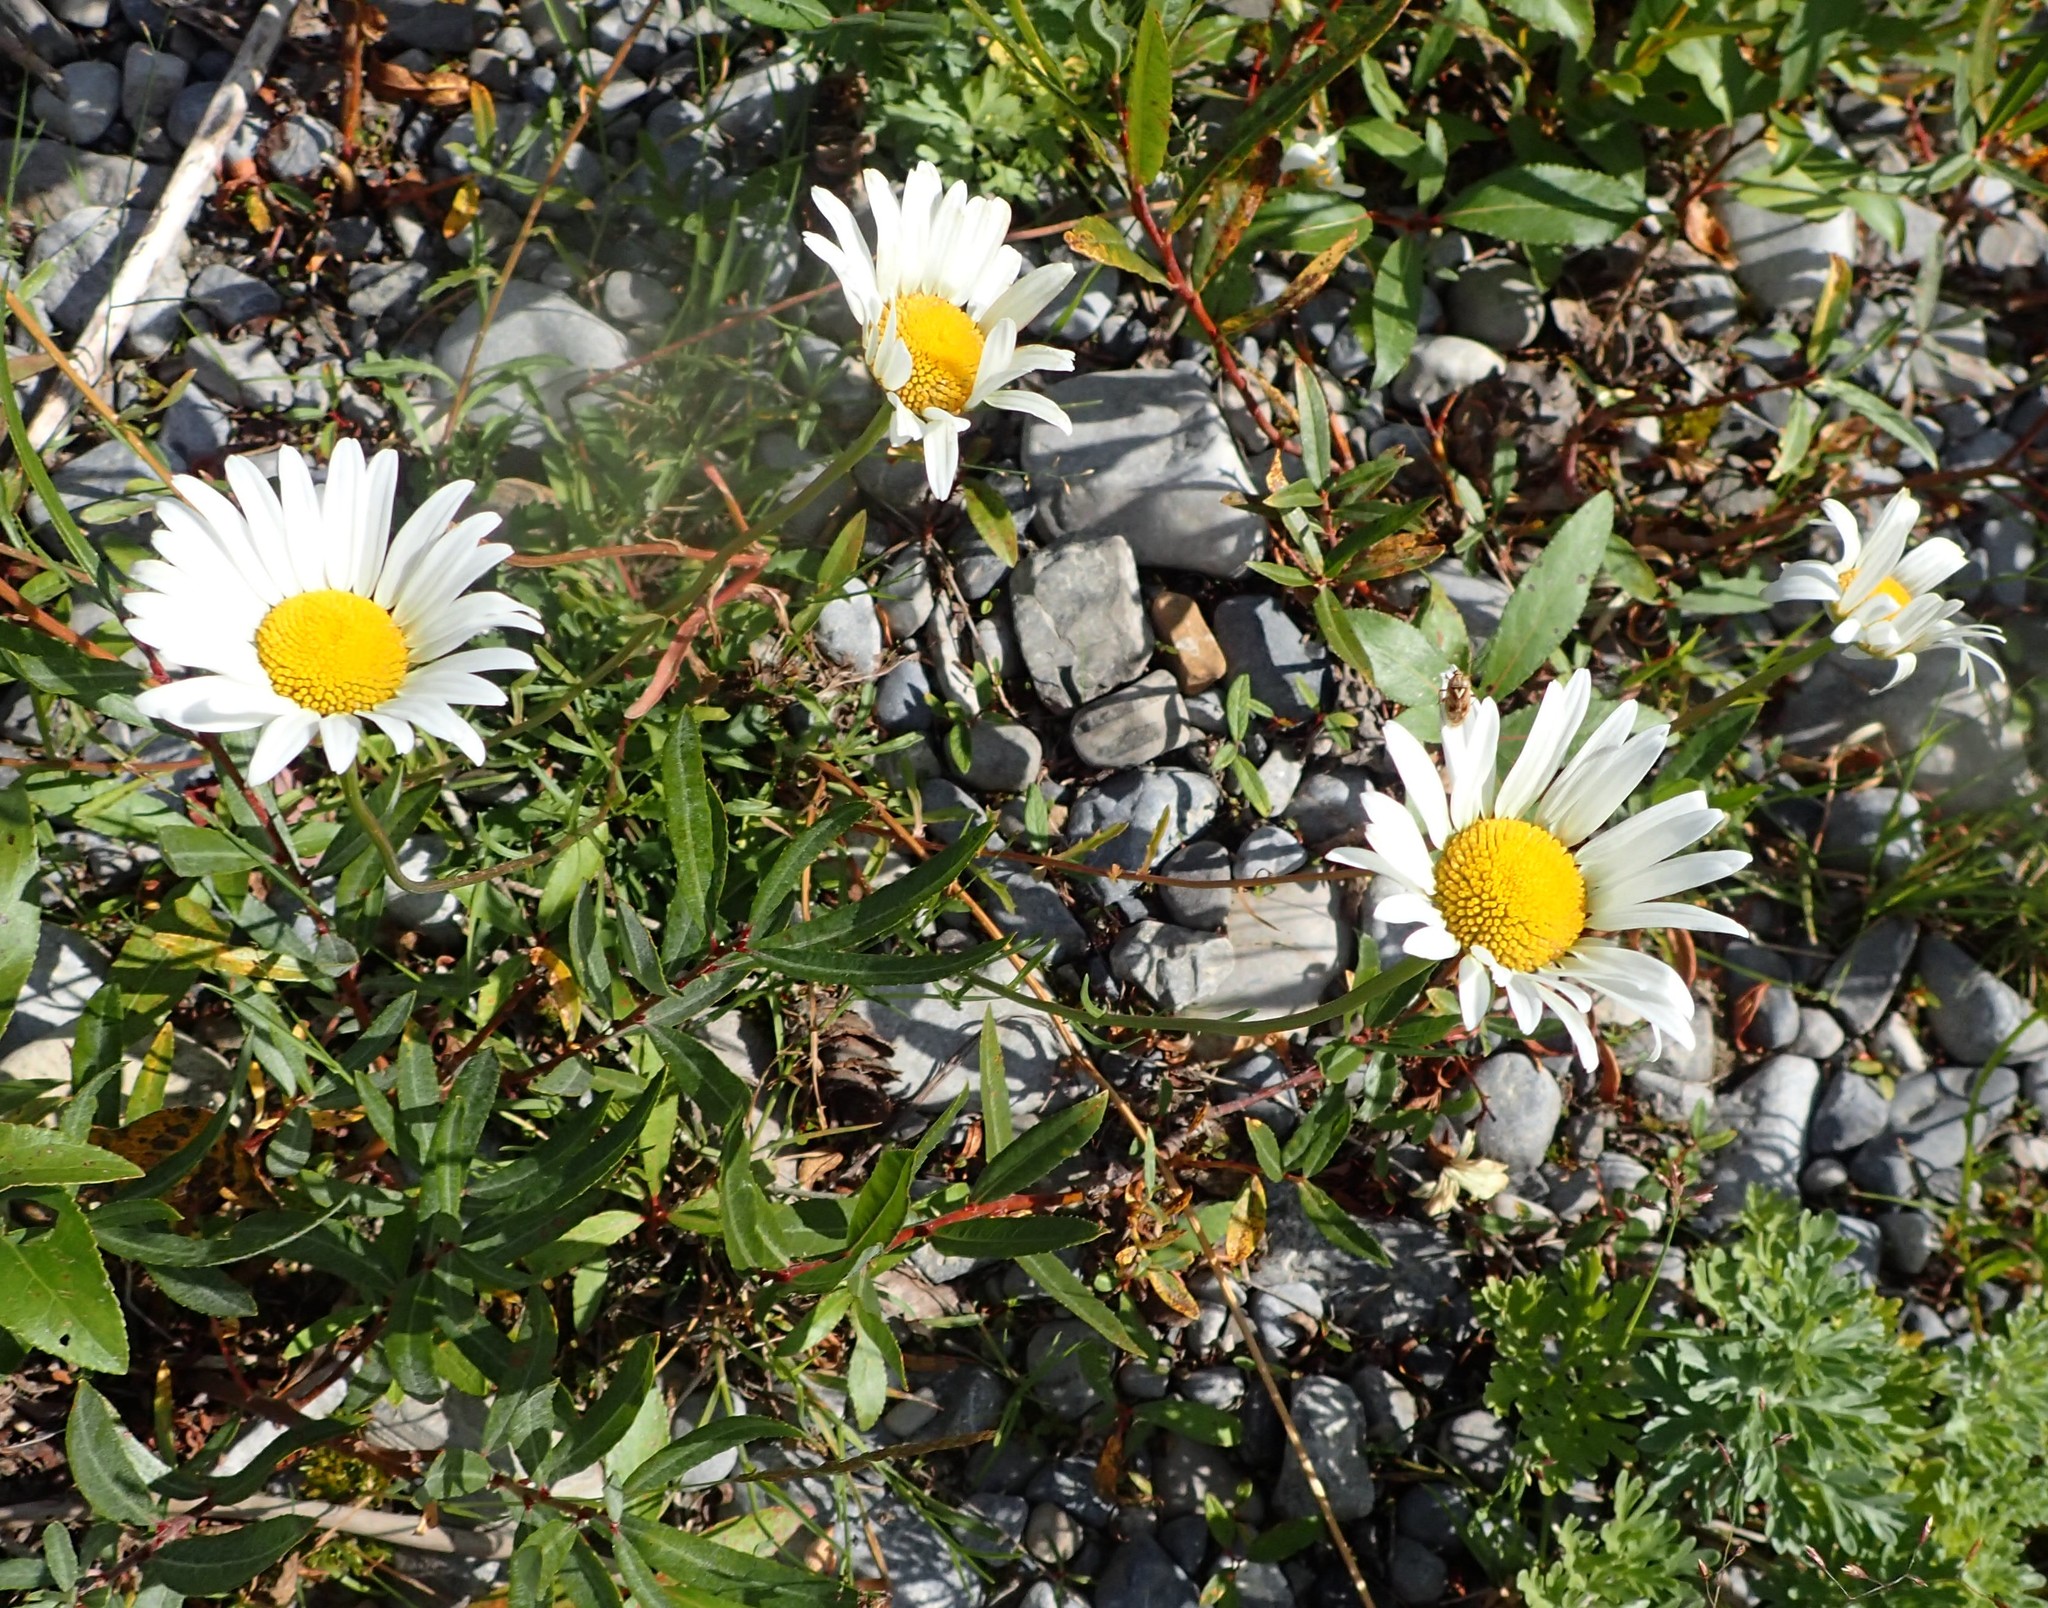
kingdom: Plantae
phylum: Tracheophyta
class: Magnoliopsida
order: Asterales
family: Asteraceae
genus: Leucanthemum
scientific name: Leucanthemum vulgare
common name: Oxeye daisy
